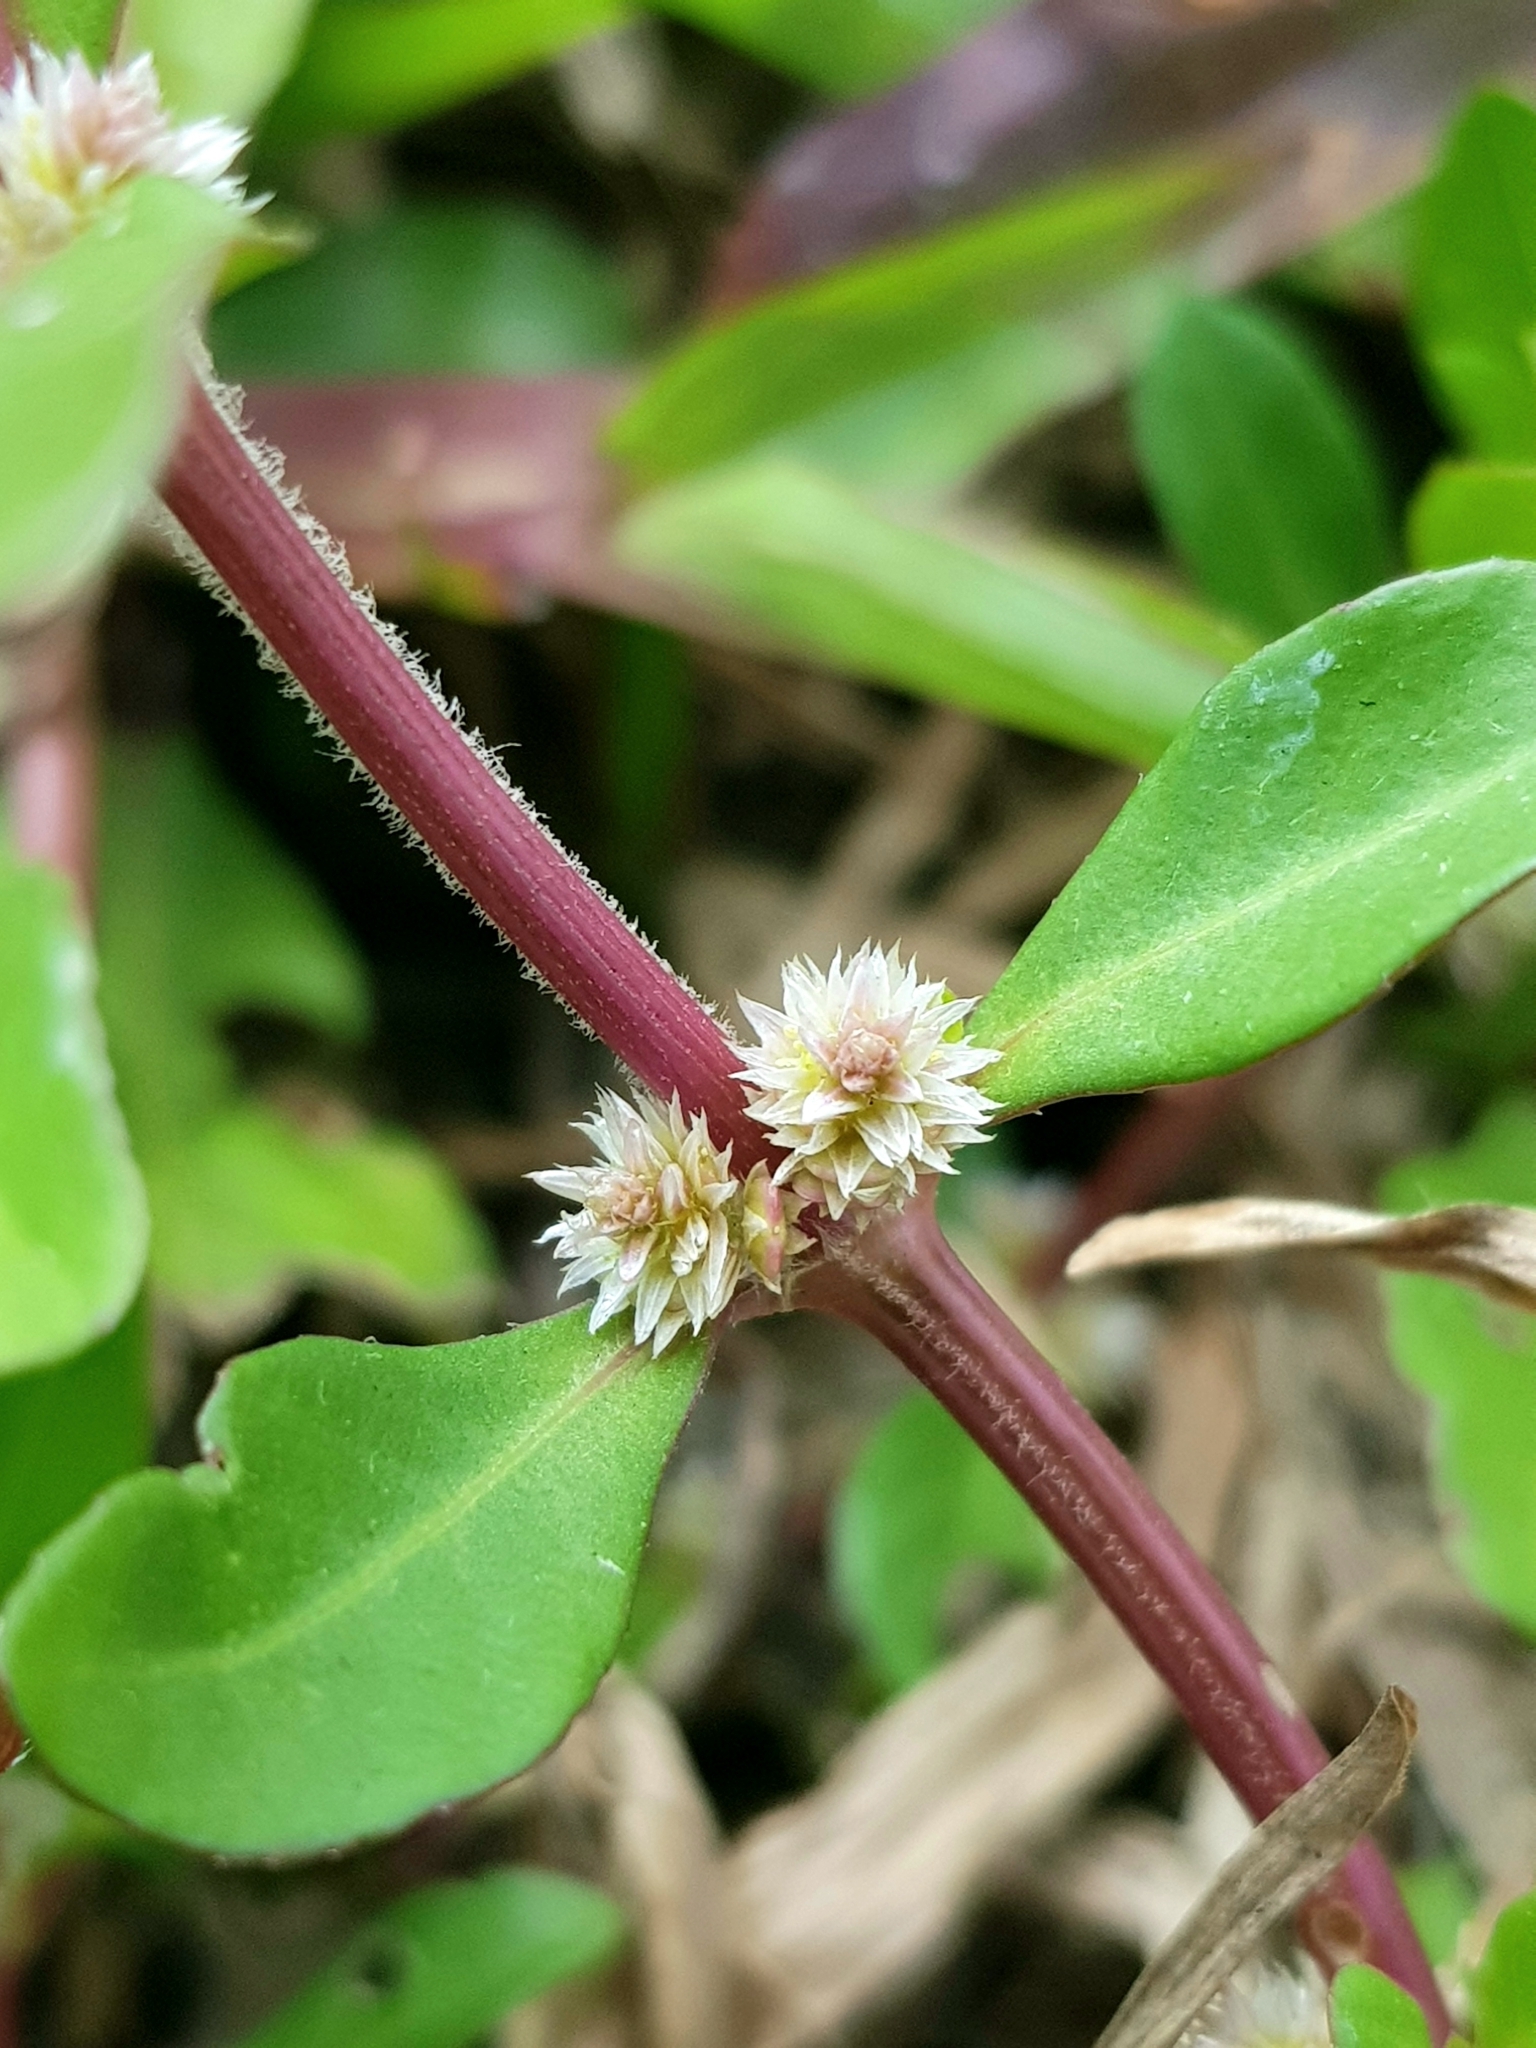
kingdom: Plantae
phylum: Tracheophyta
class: Magnoliopsida
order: Caryophyllales
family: Amaranthaceae
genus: Alternanthera
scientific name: Alternanthera sessilis
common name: Sessile joyweed
